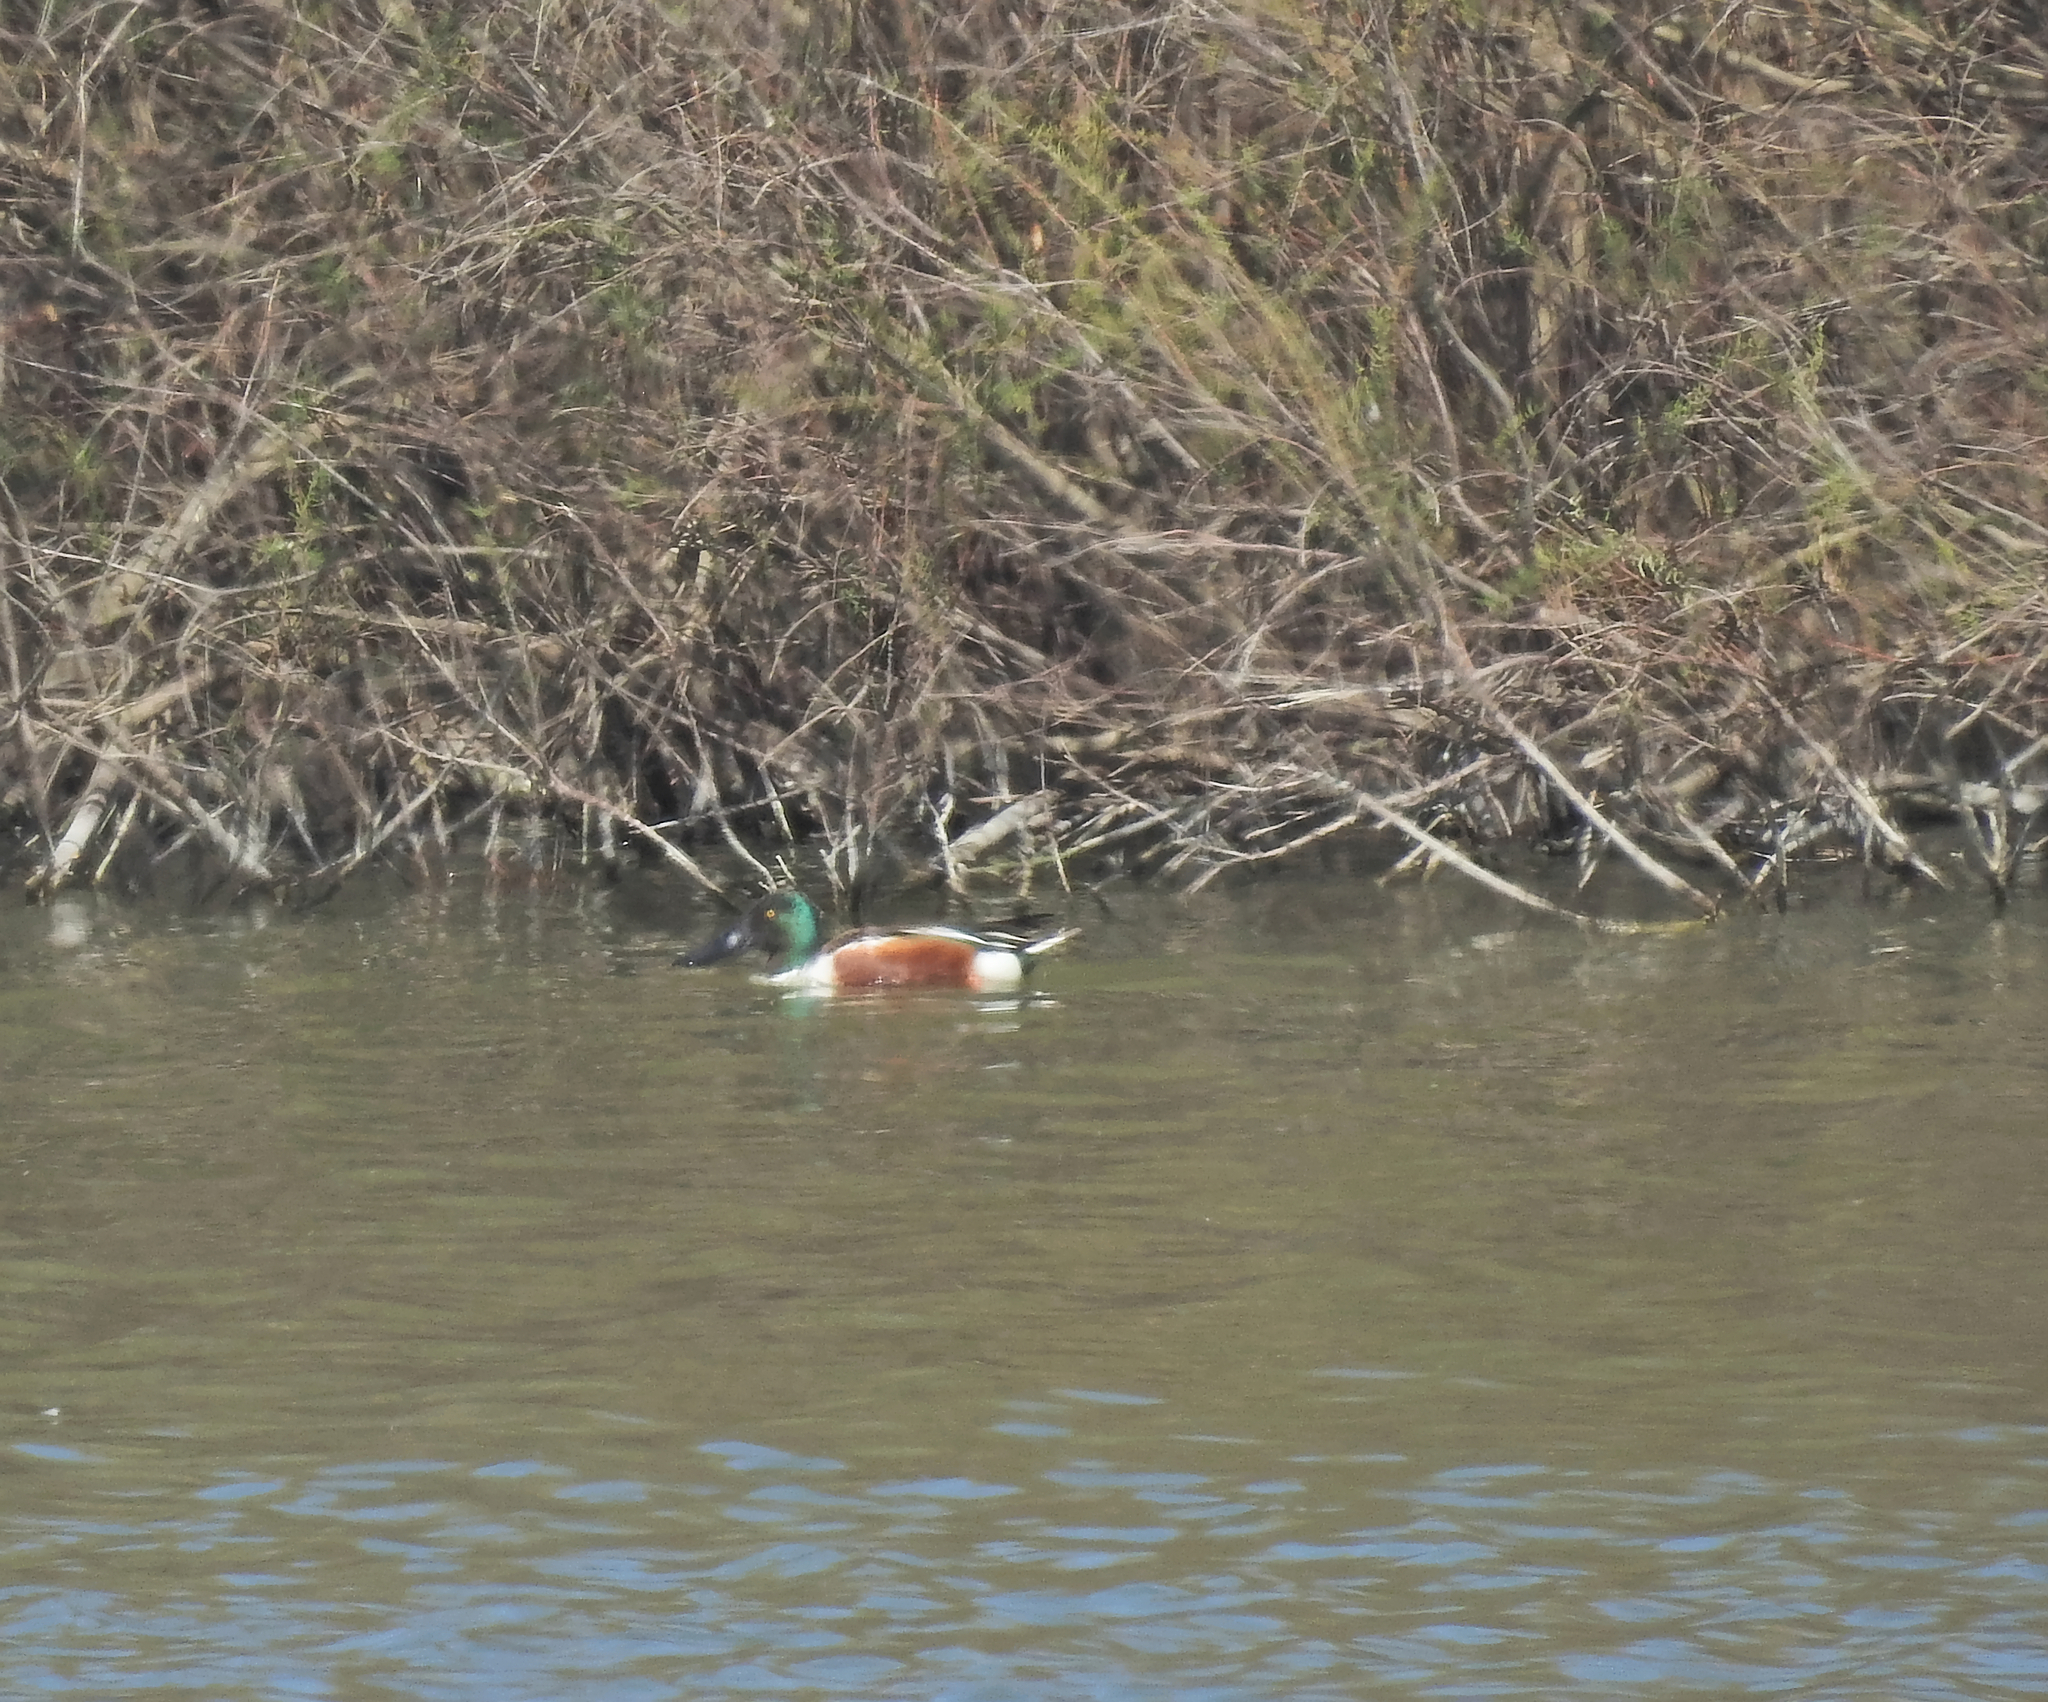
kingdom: Animalia
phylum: Chordata
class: Aves
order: Anseriformes
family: Anatidae
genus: Spatula
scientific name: Spatula clypeata
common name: Northern shoveler
